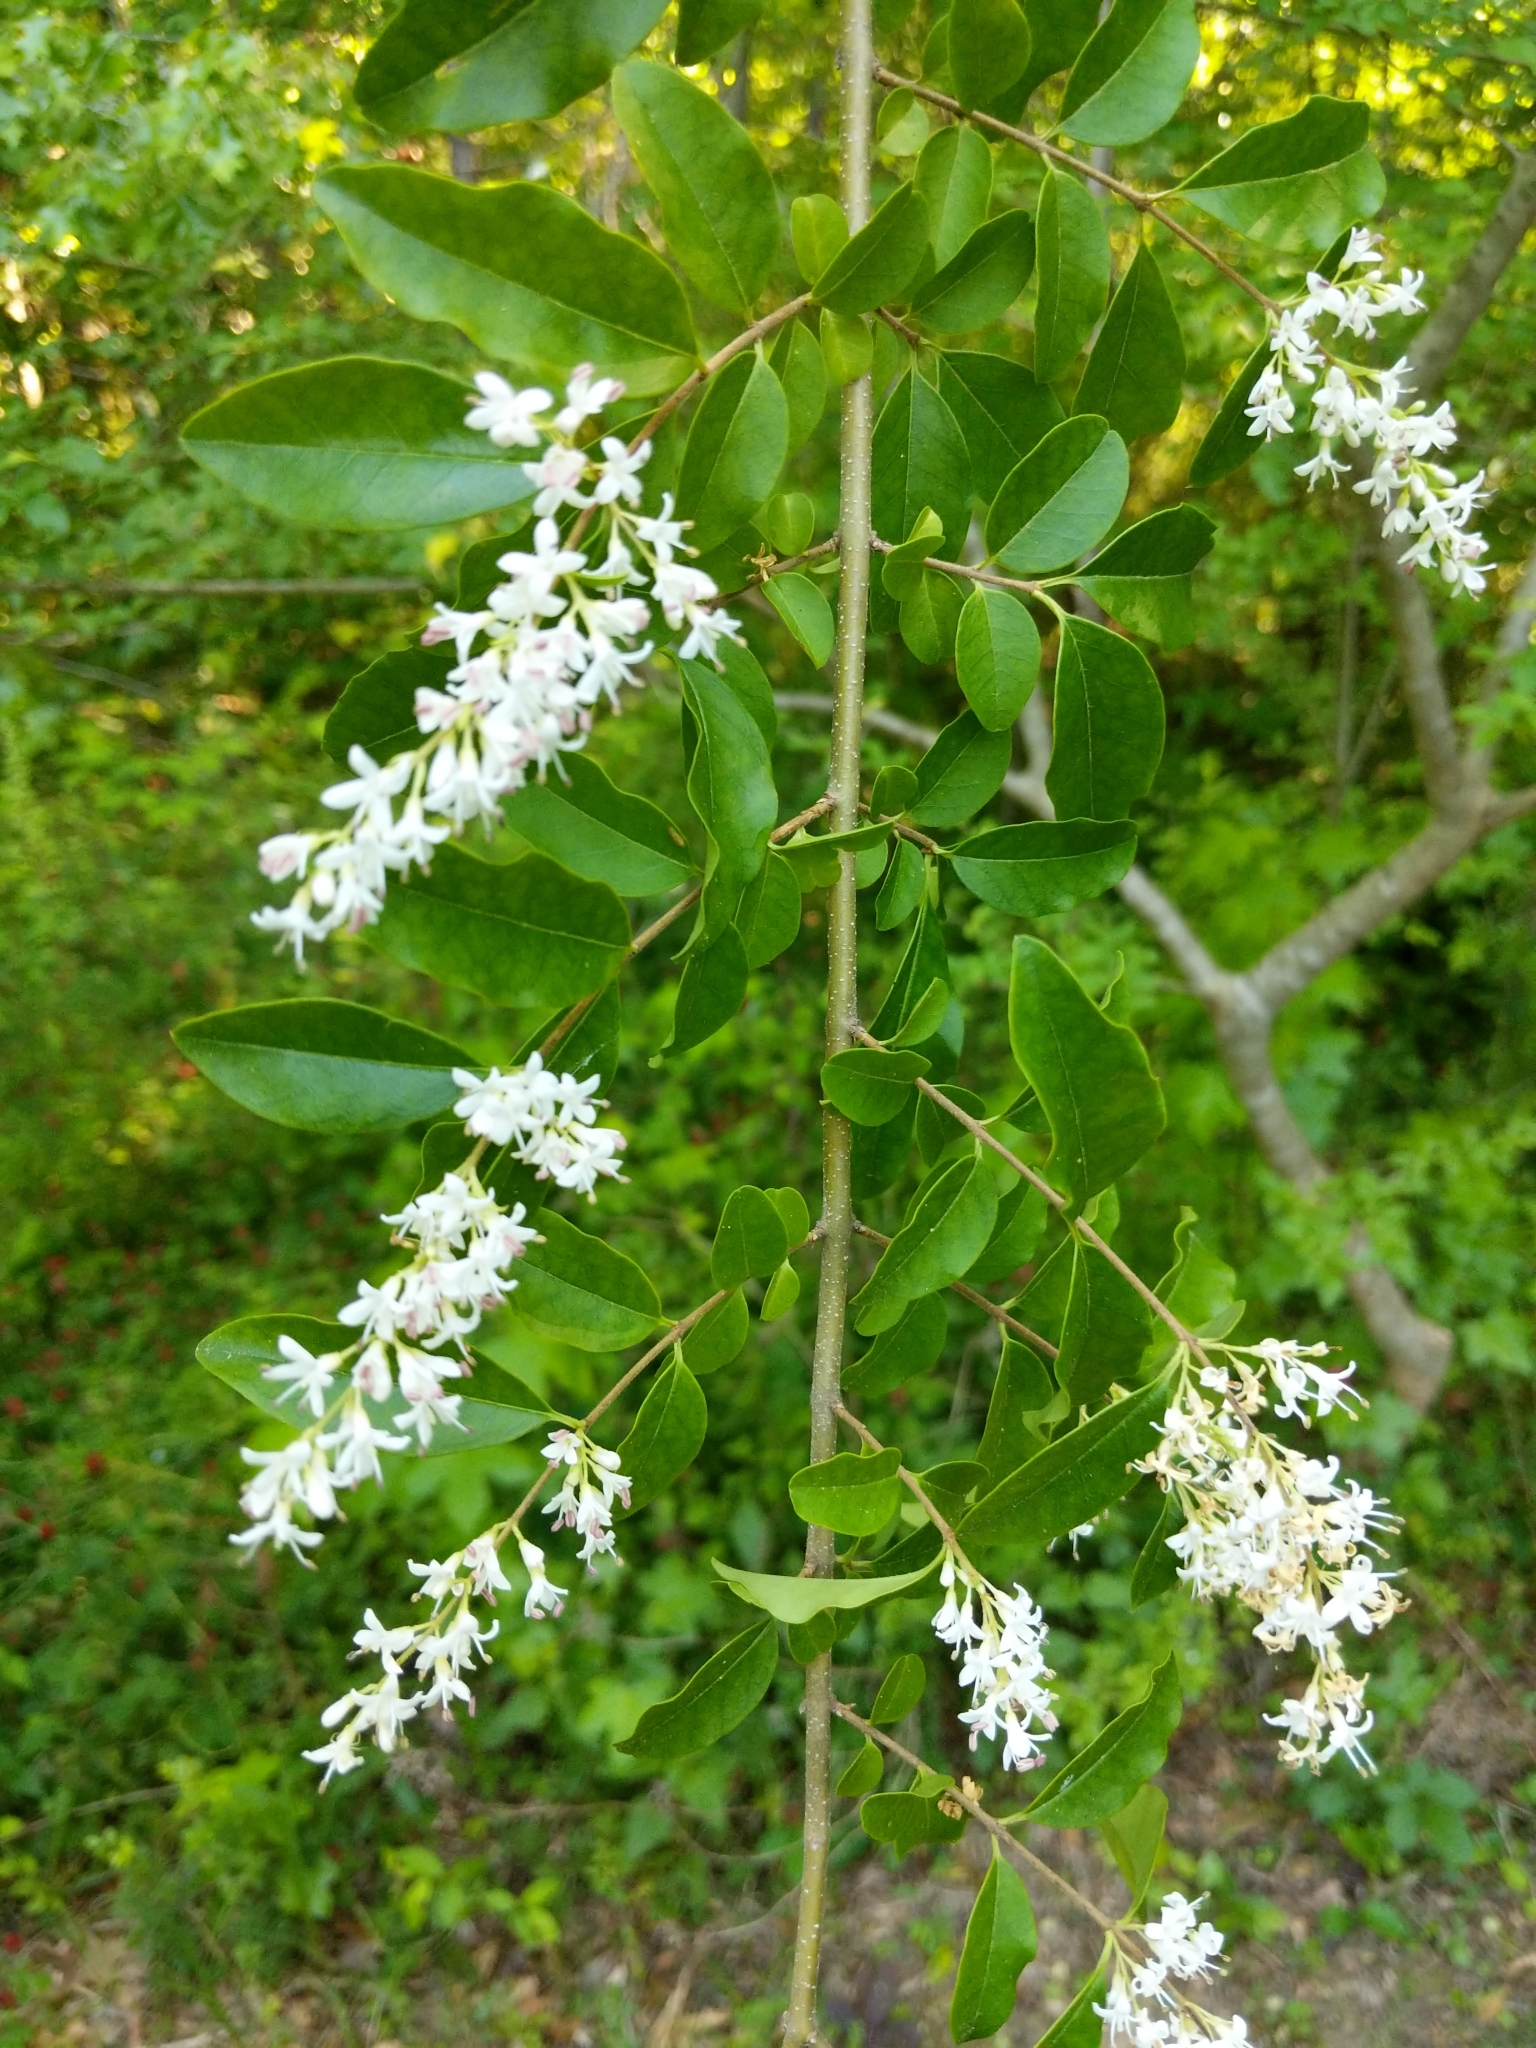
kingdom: Plantae
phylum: Tracheophyta
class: Magnoliopsida
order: Lamiales
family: Oleaceae
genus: Ligustrum
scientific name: Ligustrum sinense
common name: Chinese privet
